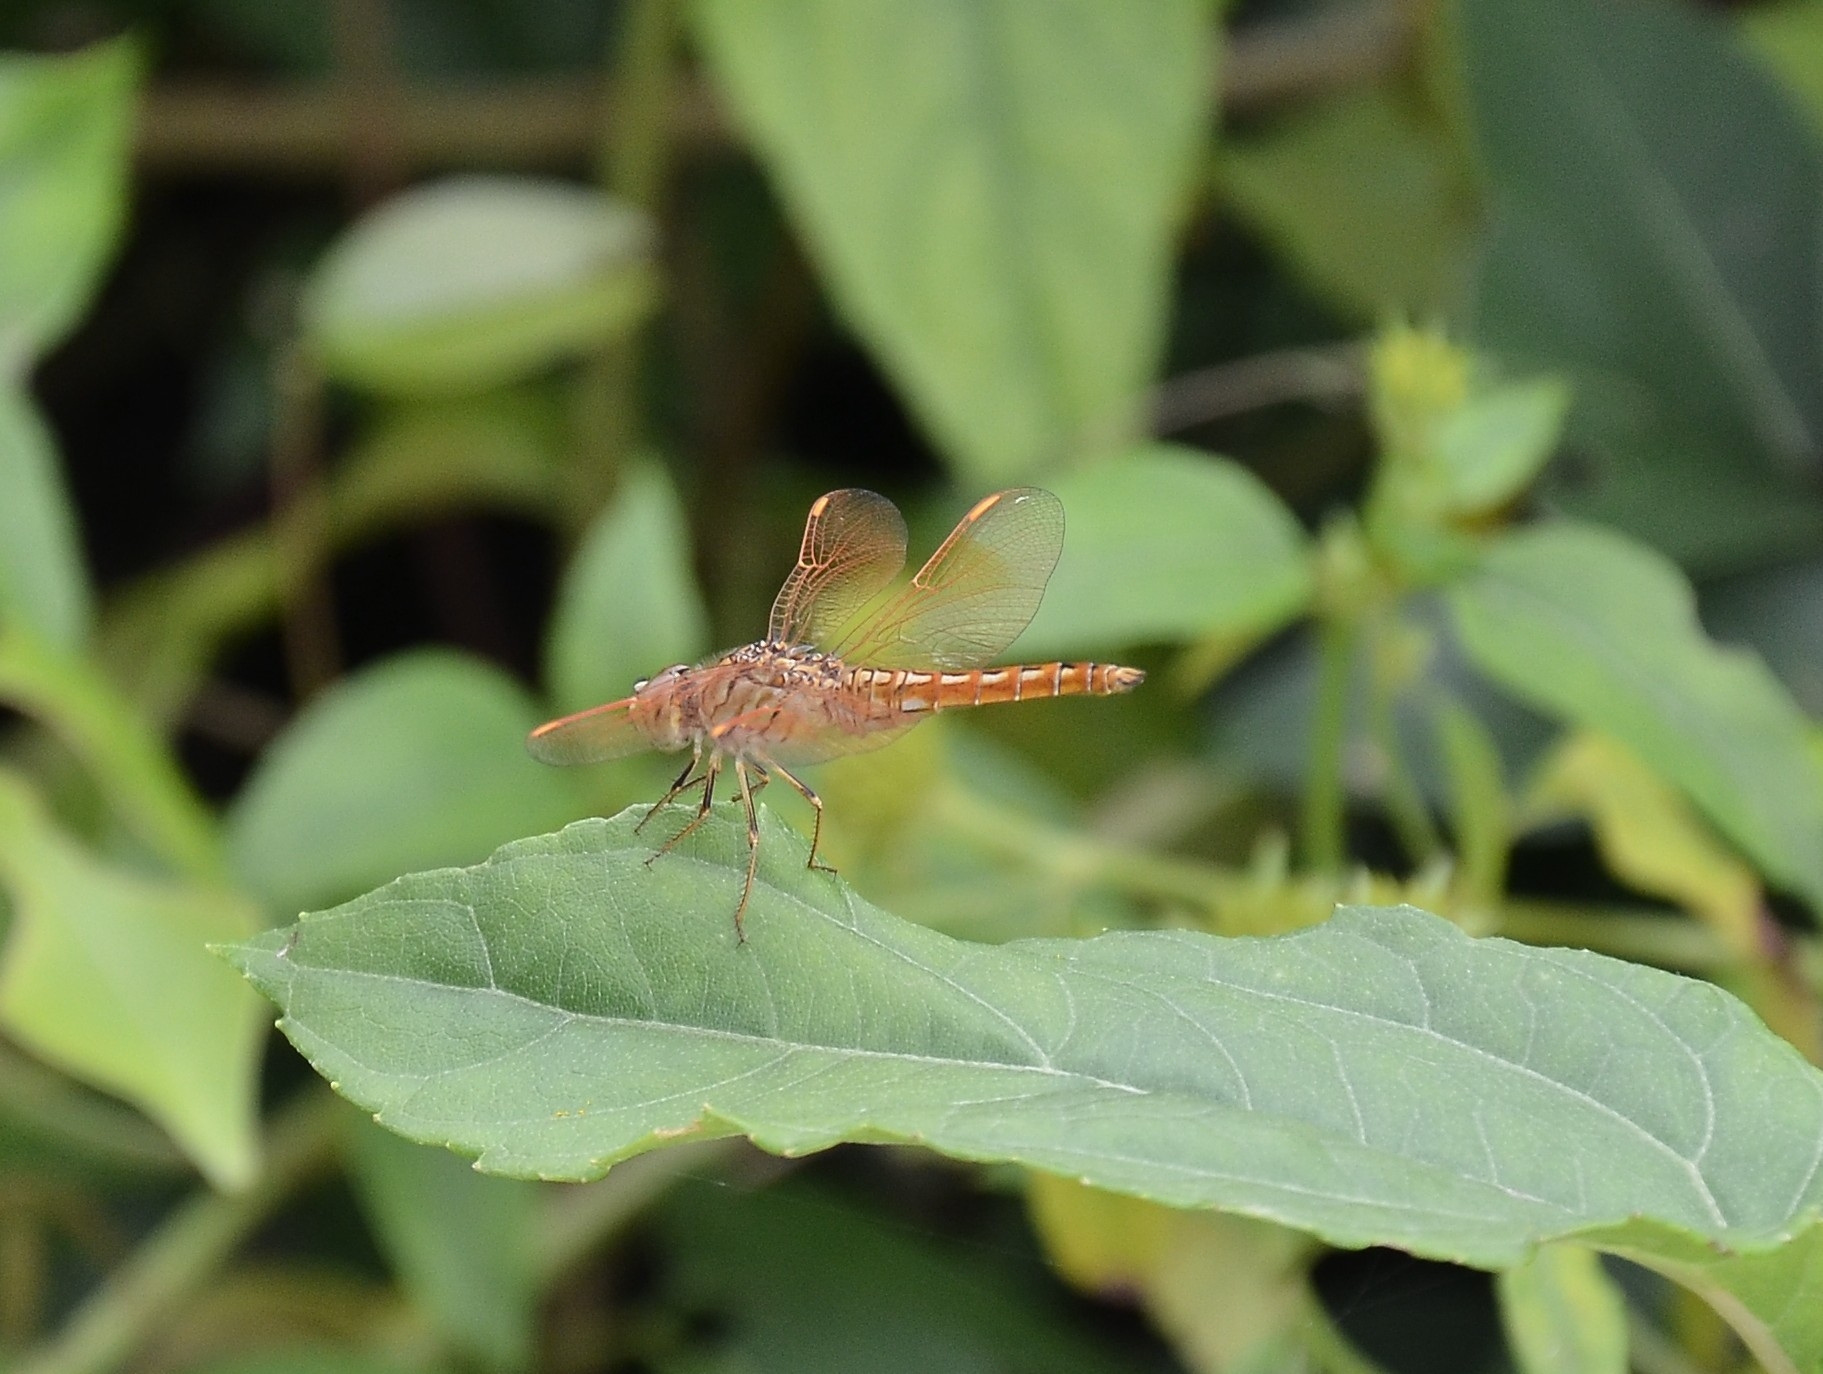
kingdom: Animalia
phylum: Arthropoda
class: Insecta
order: Odonata
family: Libellulidae
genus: Brachythemis
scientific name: Brachythemis contaminata
